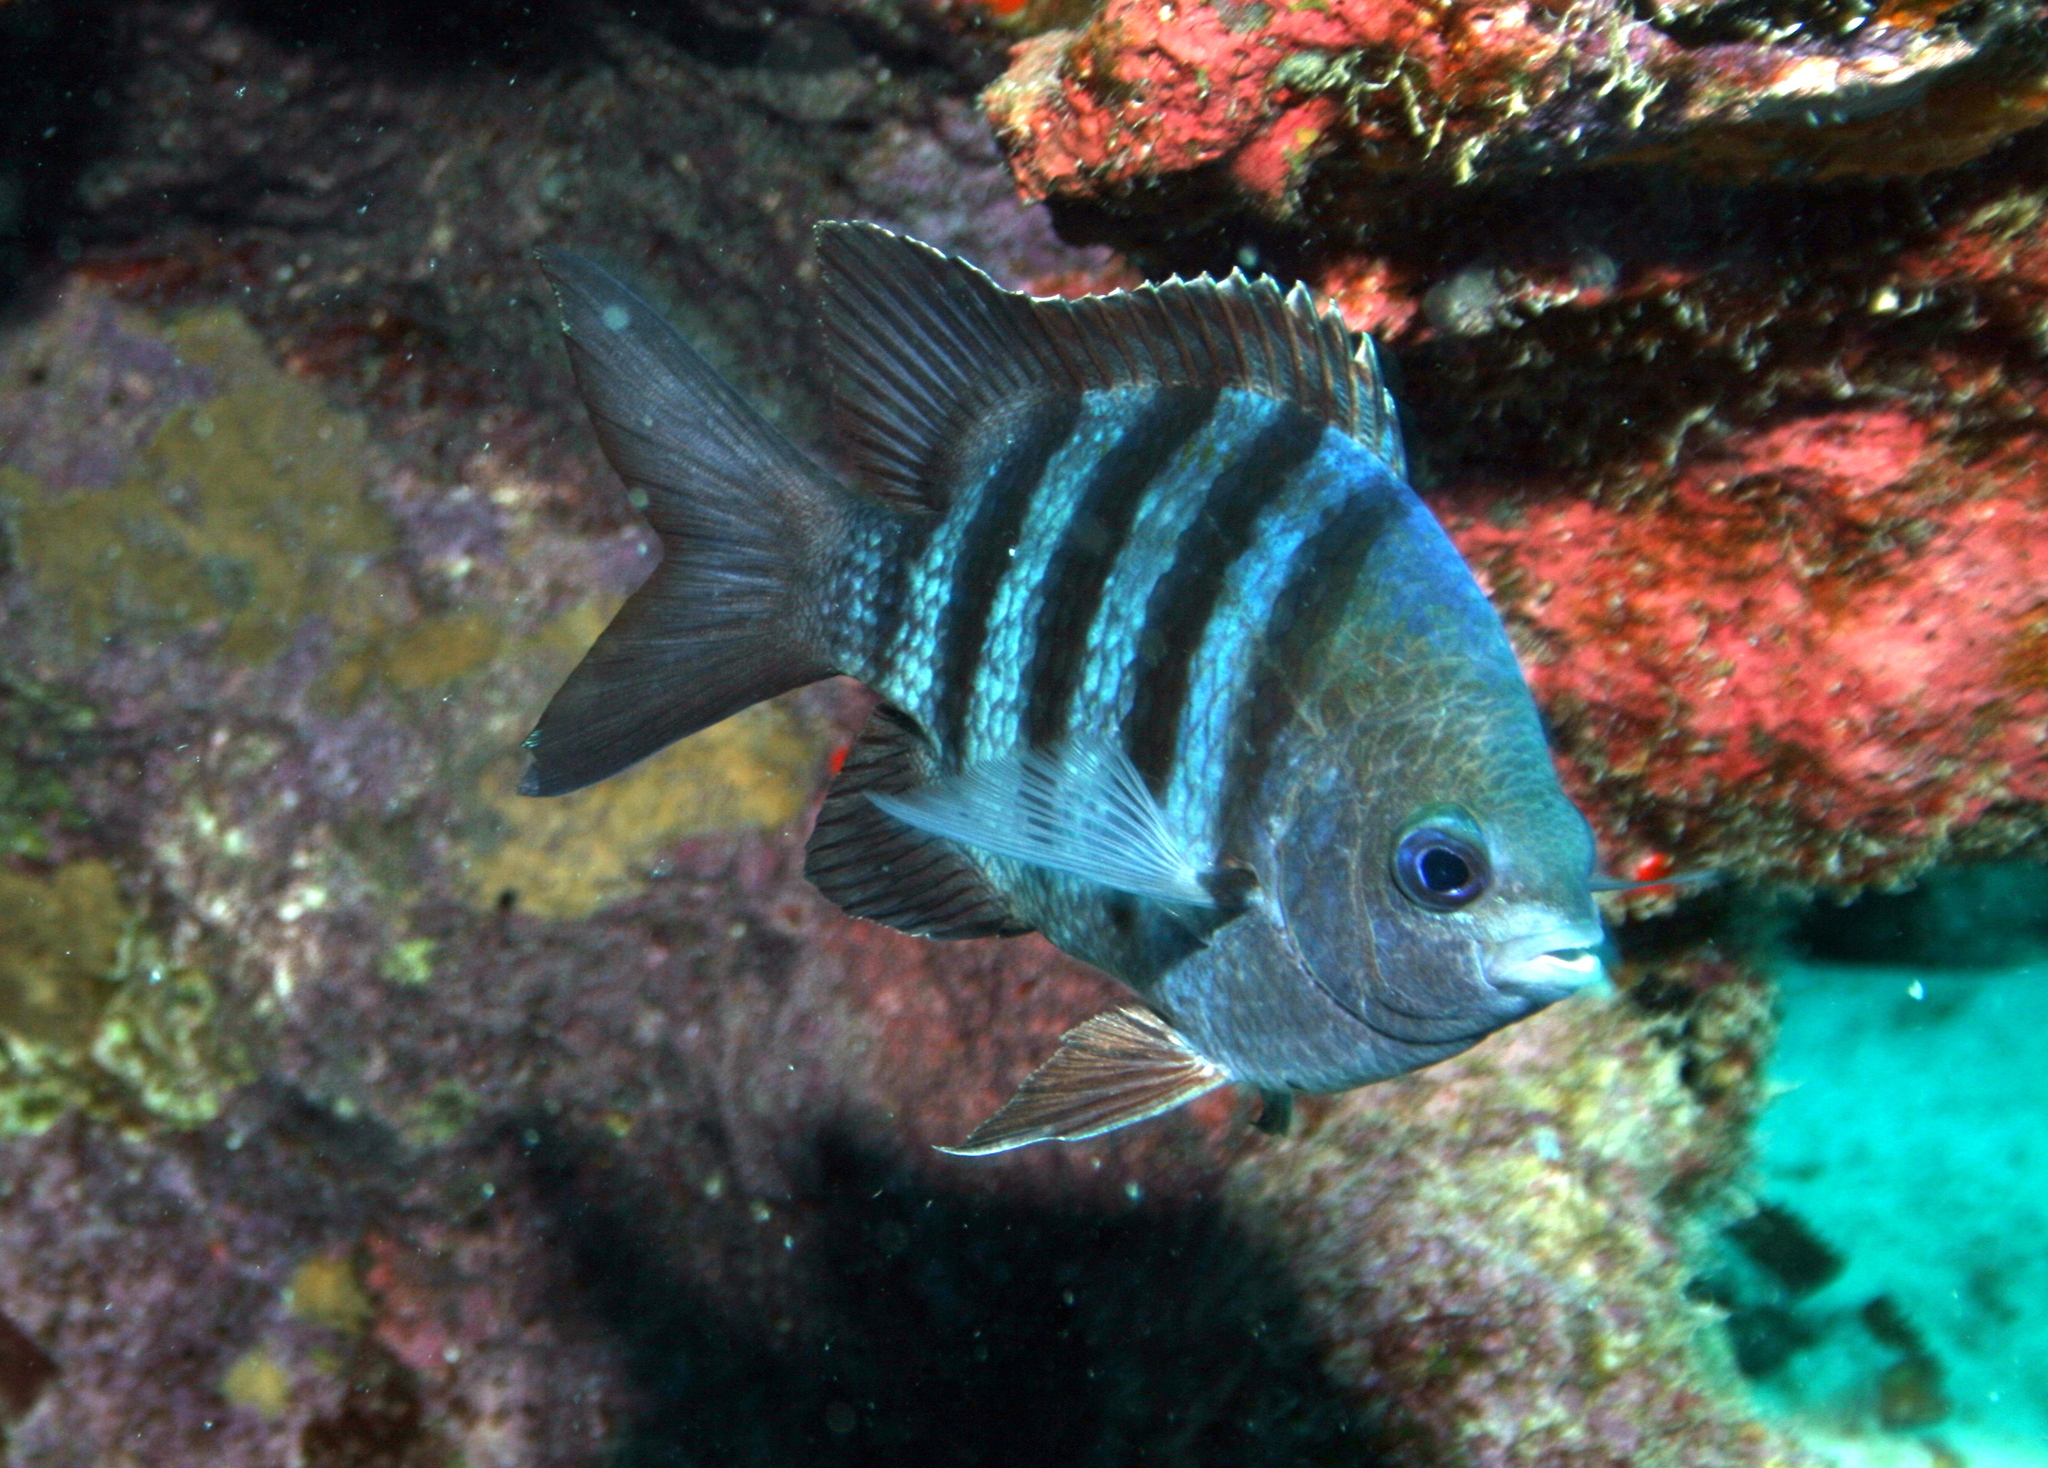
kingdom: Animalia
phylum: Chordata
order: Perciformes
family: Pomacentridae
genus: Abudefduf
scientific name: Abudefduf saxatilis
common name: Sergeant major
